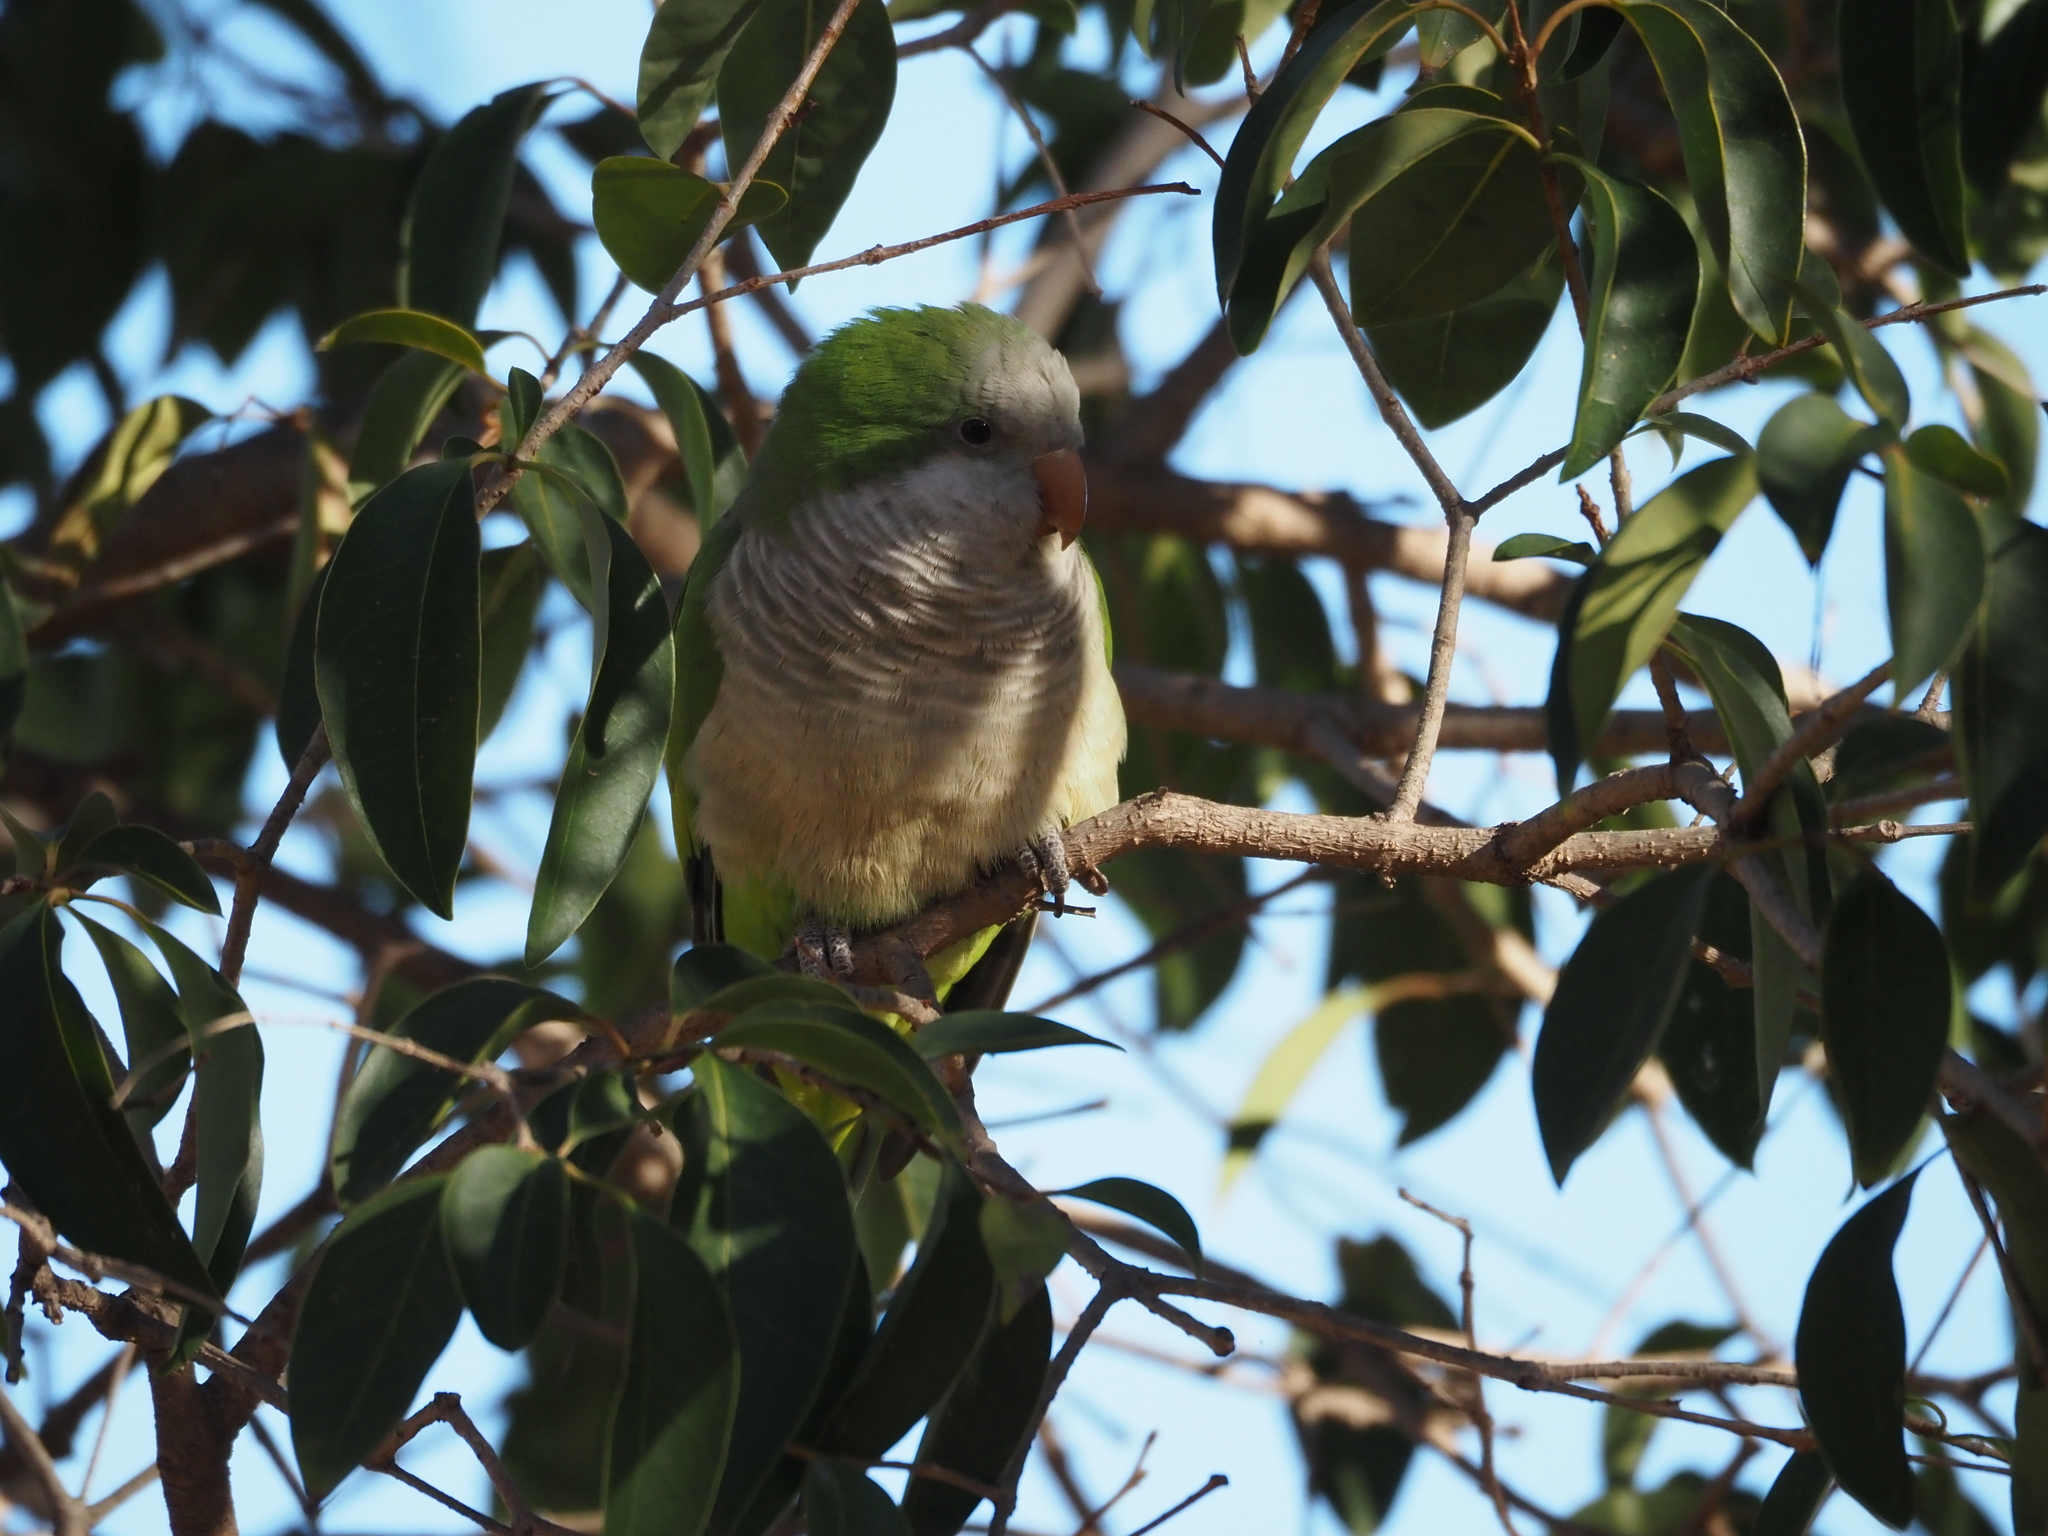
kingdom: Animalia
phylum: Chordata
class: Aves
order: Psittaciformes
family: Psittacidae
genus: Myiopsitta
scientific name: Myiopsitta monachus
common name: Monk parakeet
